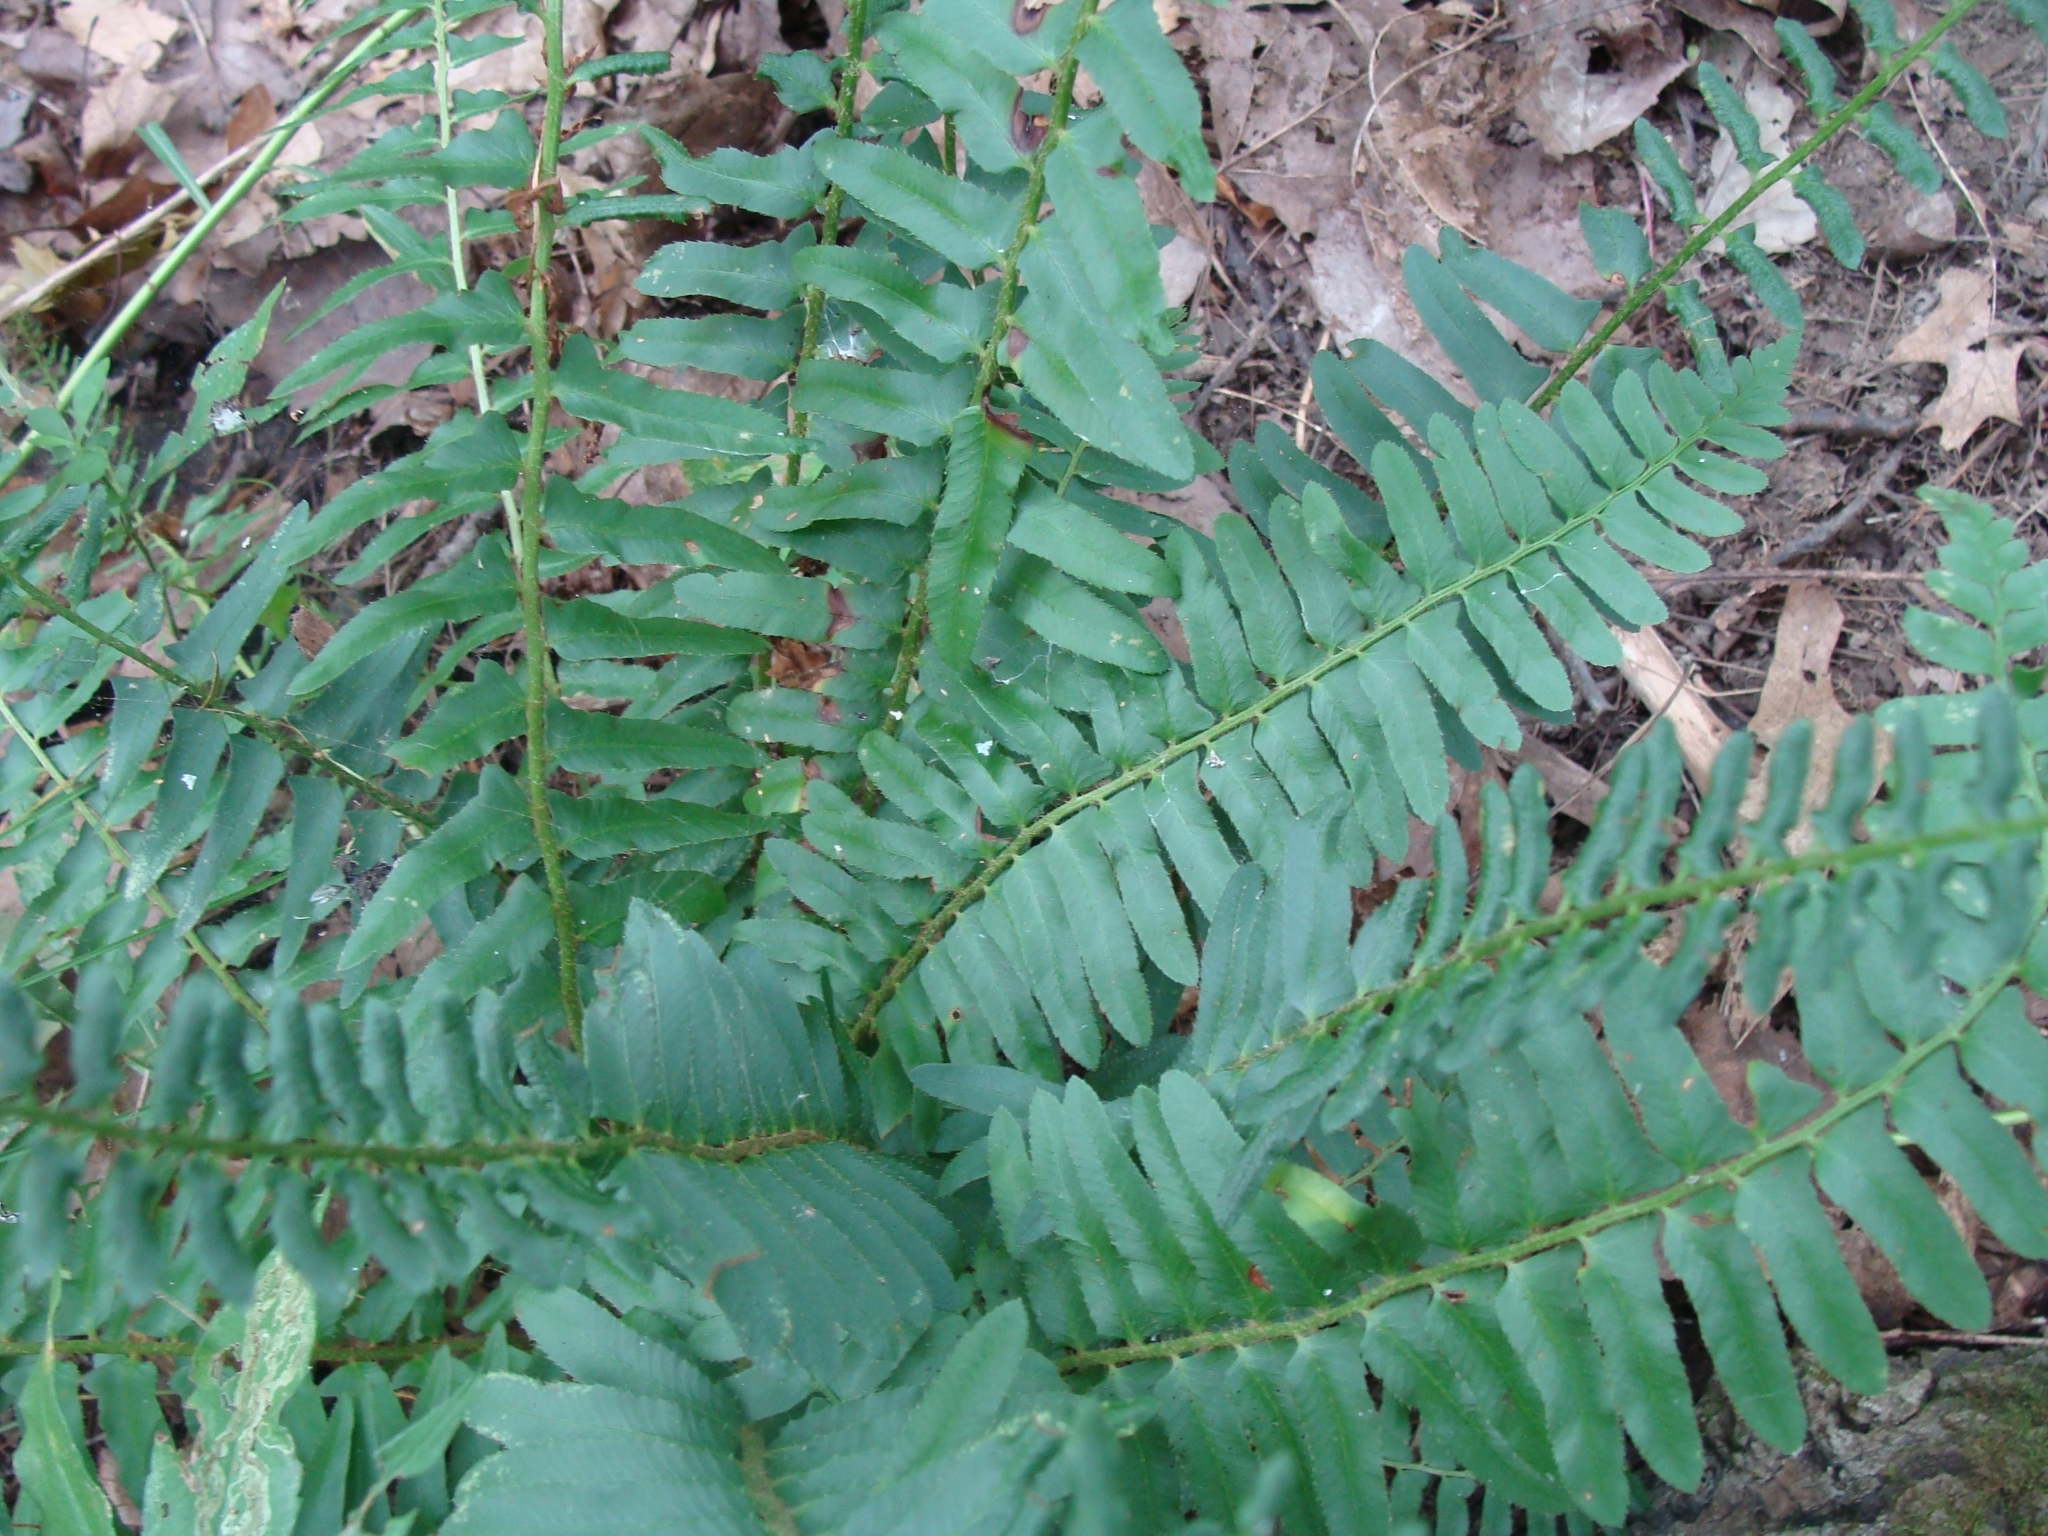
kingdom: Plantae
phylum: Tracheophyta
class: Polypodiopsida
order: Polypodiales
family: Dryopteridaceae
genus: Polystichum
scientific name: Polystichum acrostichoides
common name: Christmas fern
